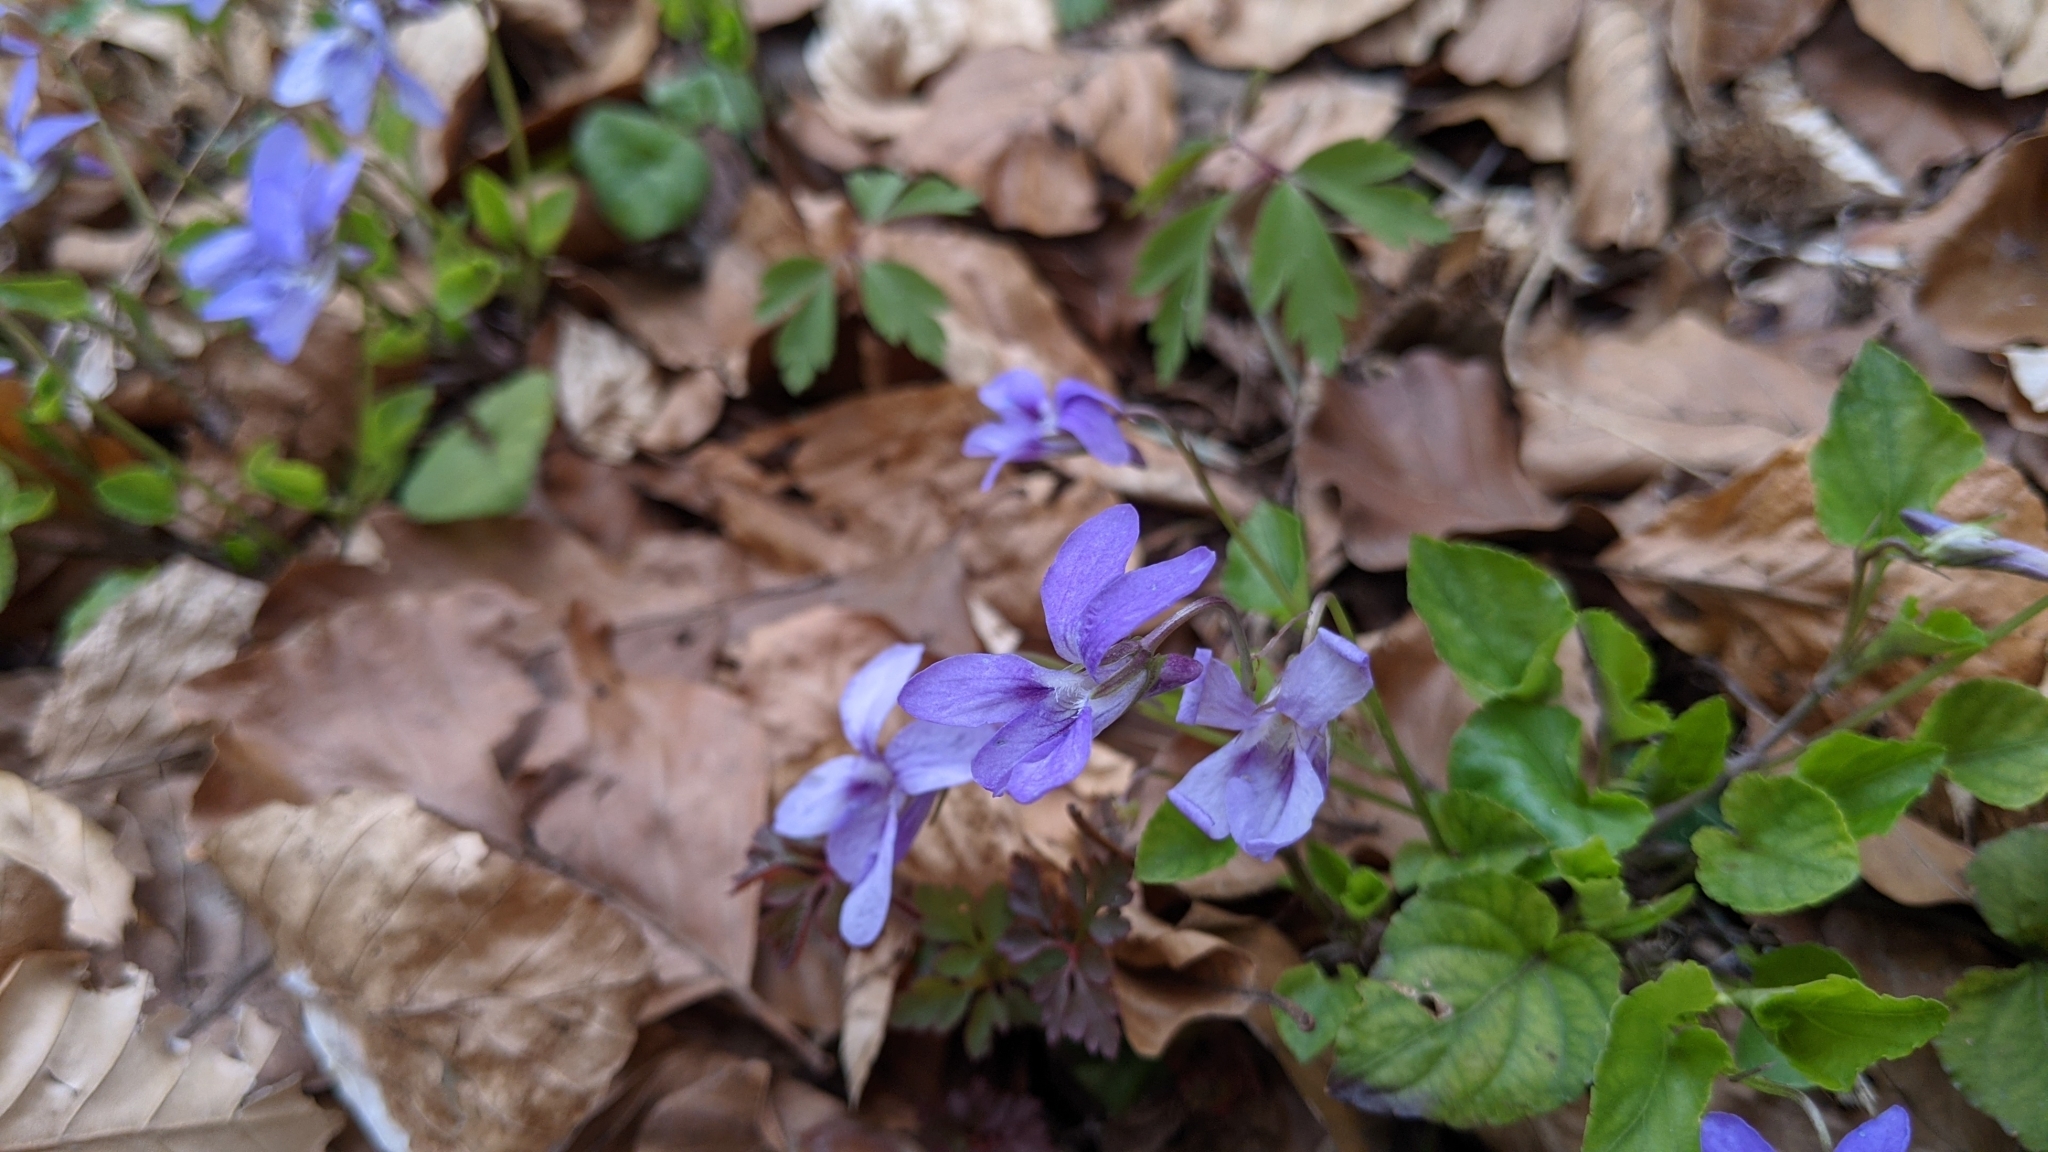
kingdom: Plantae
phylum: Tracheophyta
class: Magnoliopsida
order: Malpighiales
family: Violaceae
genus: Viola
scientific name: Viola reichenbachiana
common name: Early dog-violet
